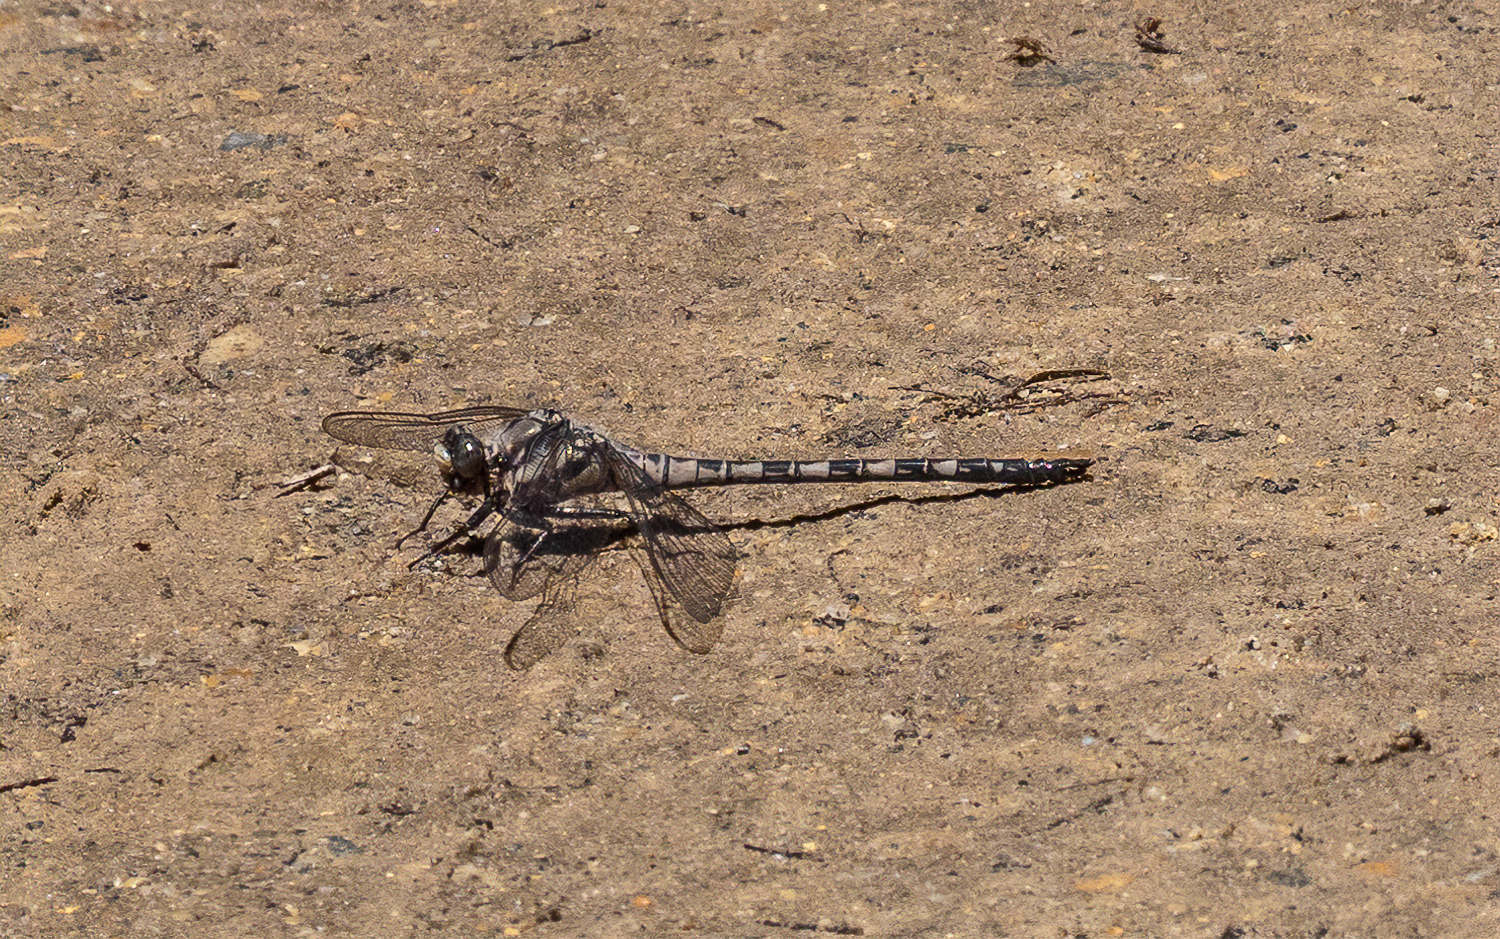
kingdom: Animalia
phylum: Arthropoda
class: Insecta
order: Odonata
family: Petaluridae
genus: Tachopteryx
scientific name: Tachopteryx thoreyi
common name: Gray petaltail
